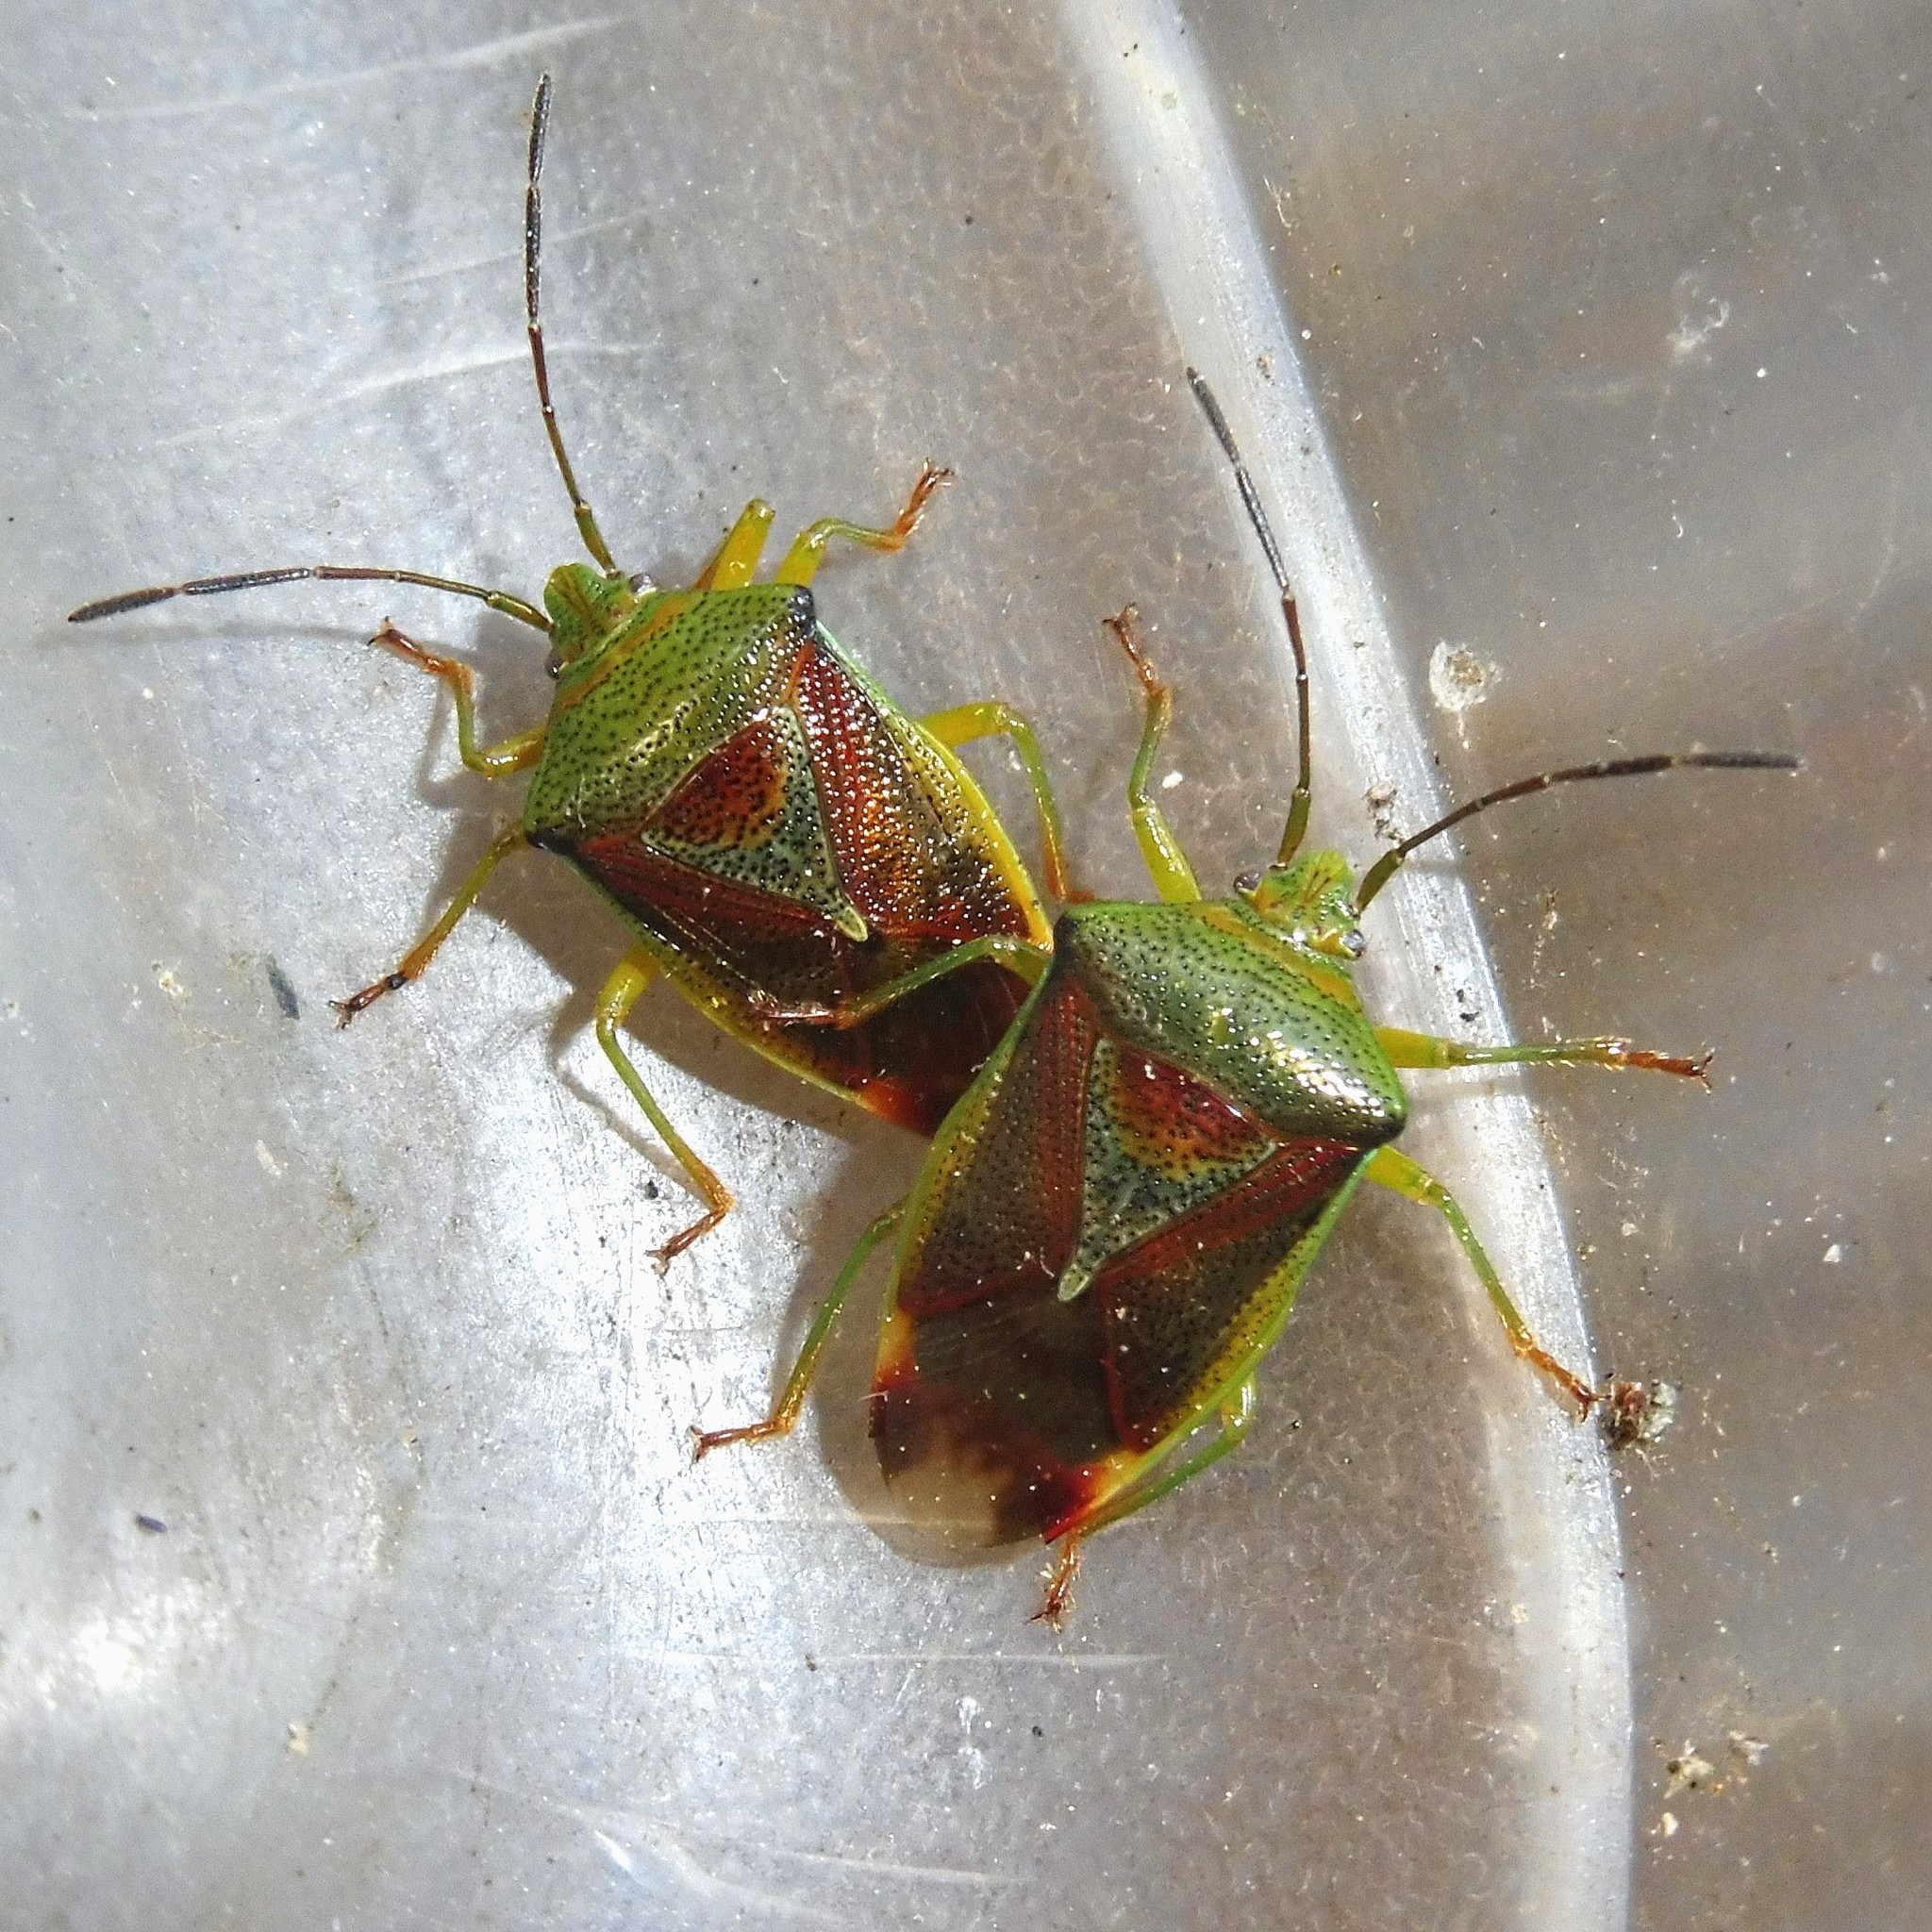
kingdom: Animalia
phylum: Arthropoda
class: Insecta
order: Hemiptera
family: Acanthosomatidae
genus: Elasmostethus
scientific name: Elasmostethus interstinctus
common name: Birch shieldbug
